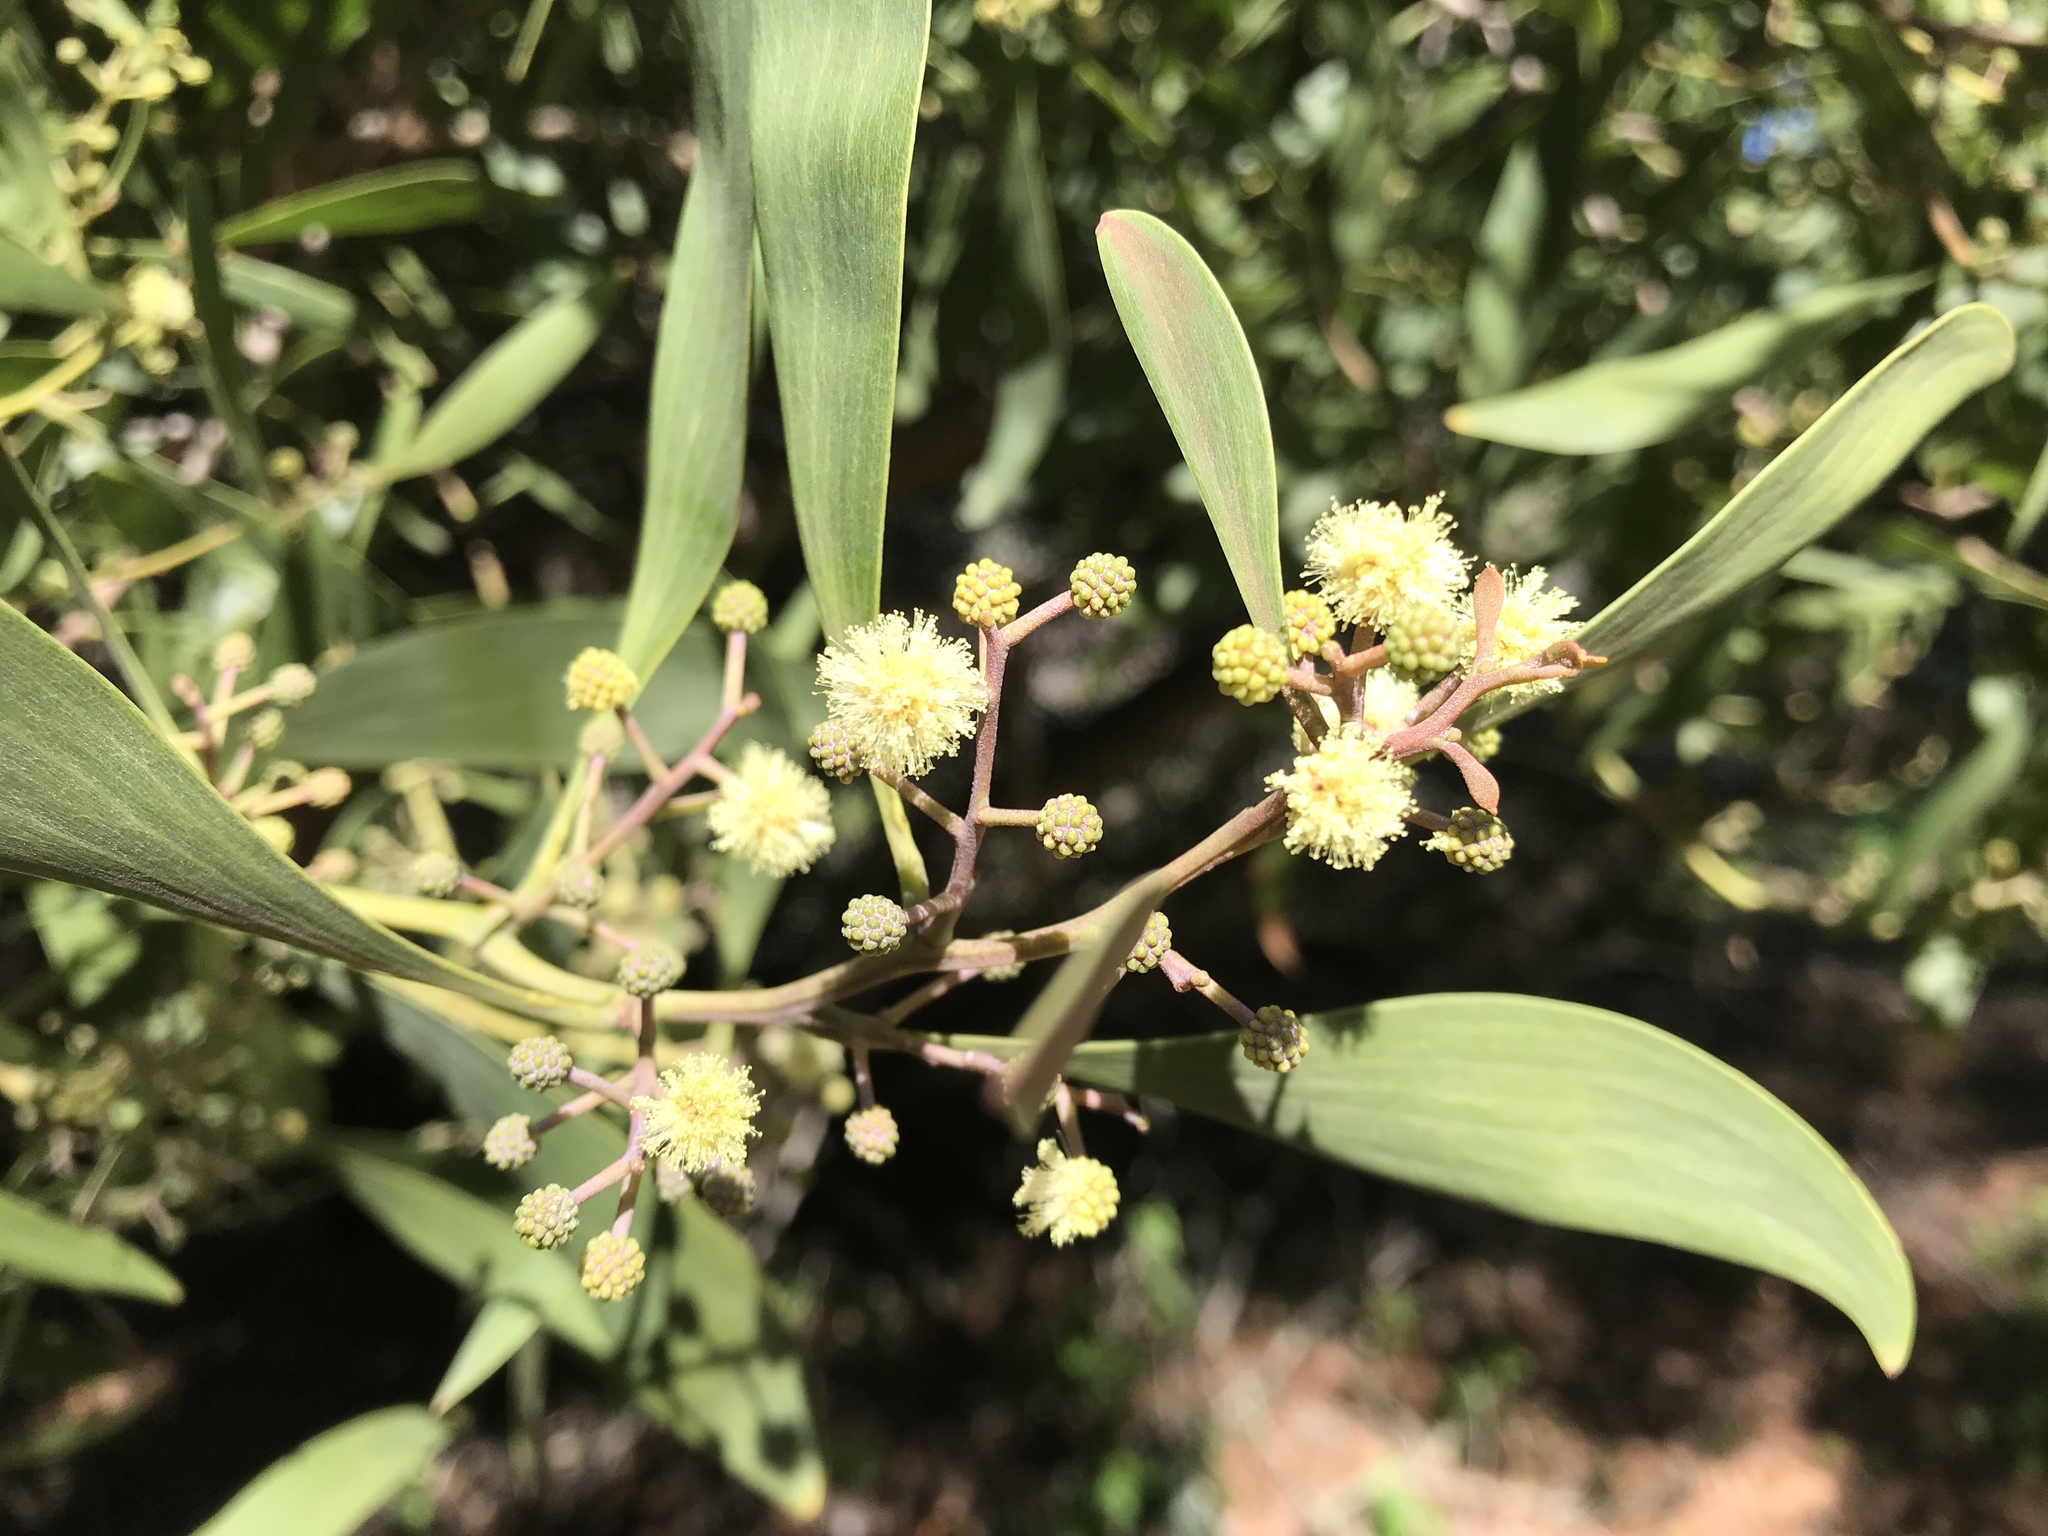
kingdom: Plantae
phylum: Tracheophyta
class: Magnoliopsida
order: Fabales
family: Fabaceae
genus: Acacia
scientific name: Acacia melanoxylon
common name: Blackwood
